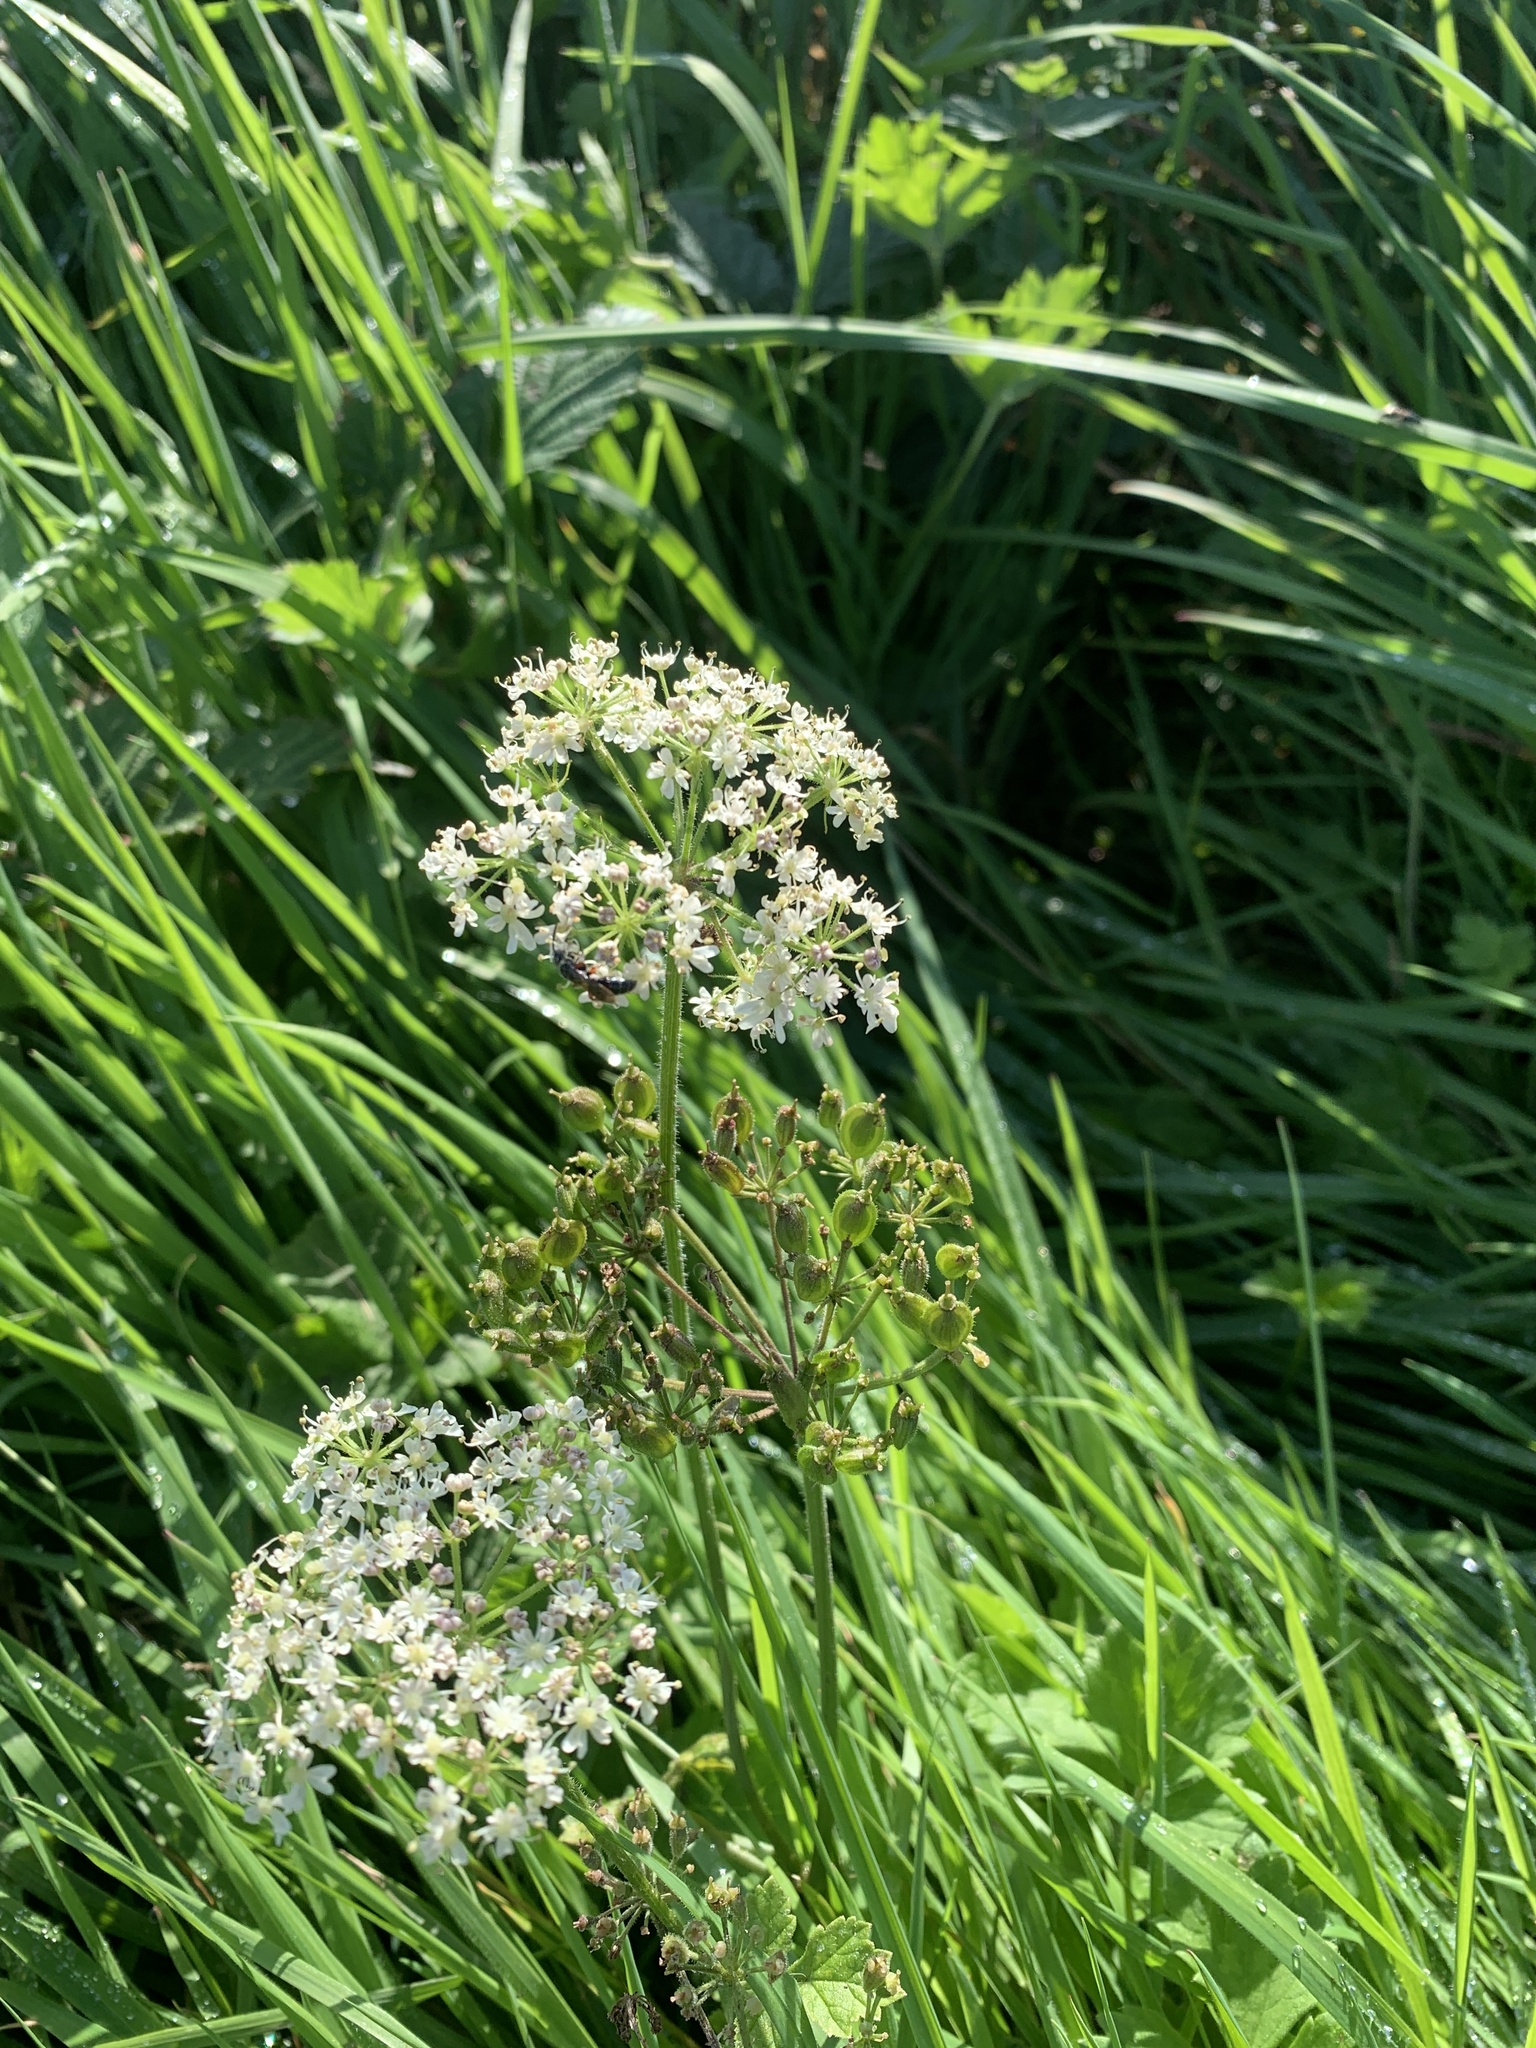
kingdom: Plantae
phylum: Tracheophyta
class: Magnoliopsida
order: Apiales
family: Apiaceae
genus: Heracleum
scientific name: Heracleum sphondylium
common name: Hogweed
